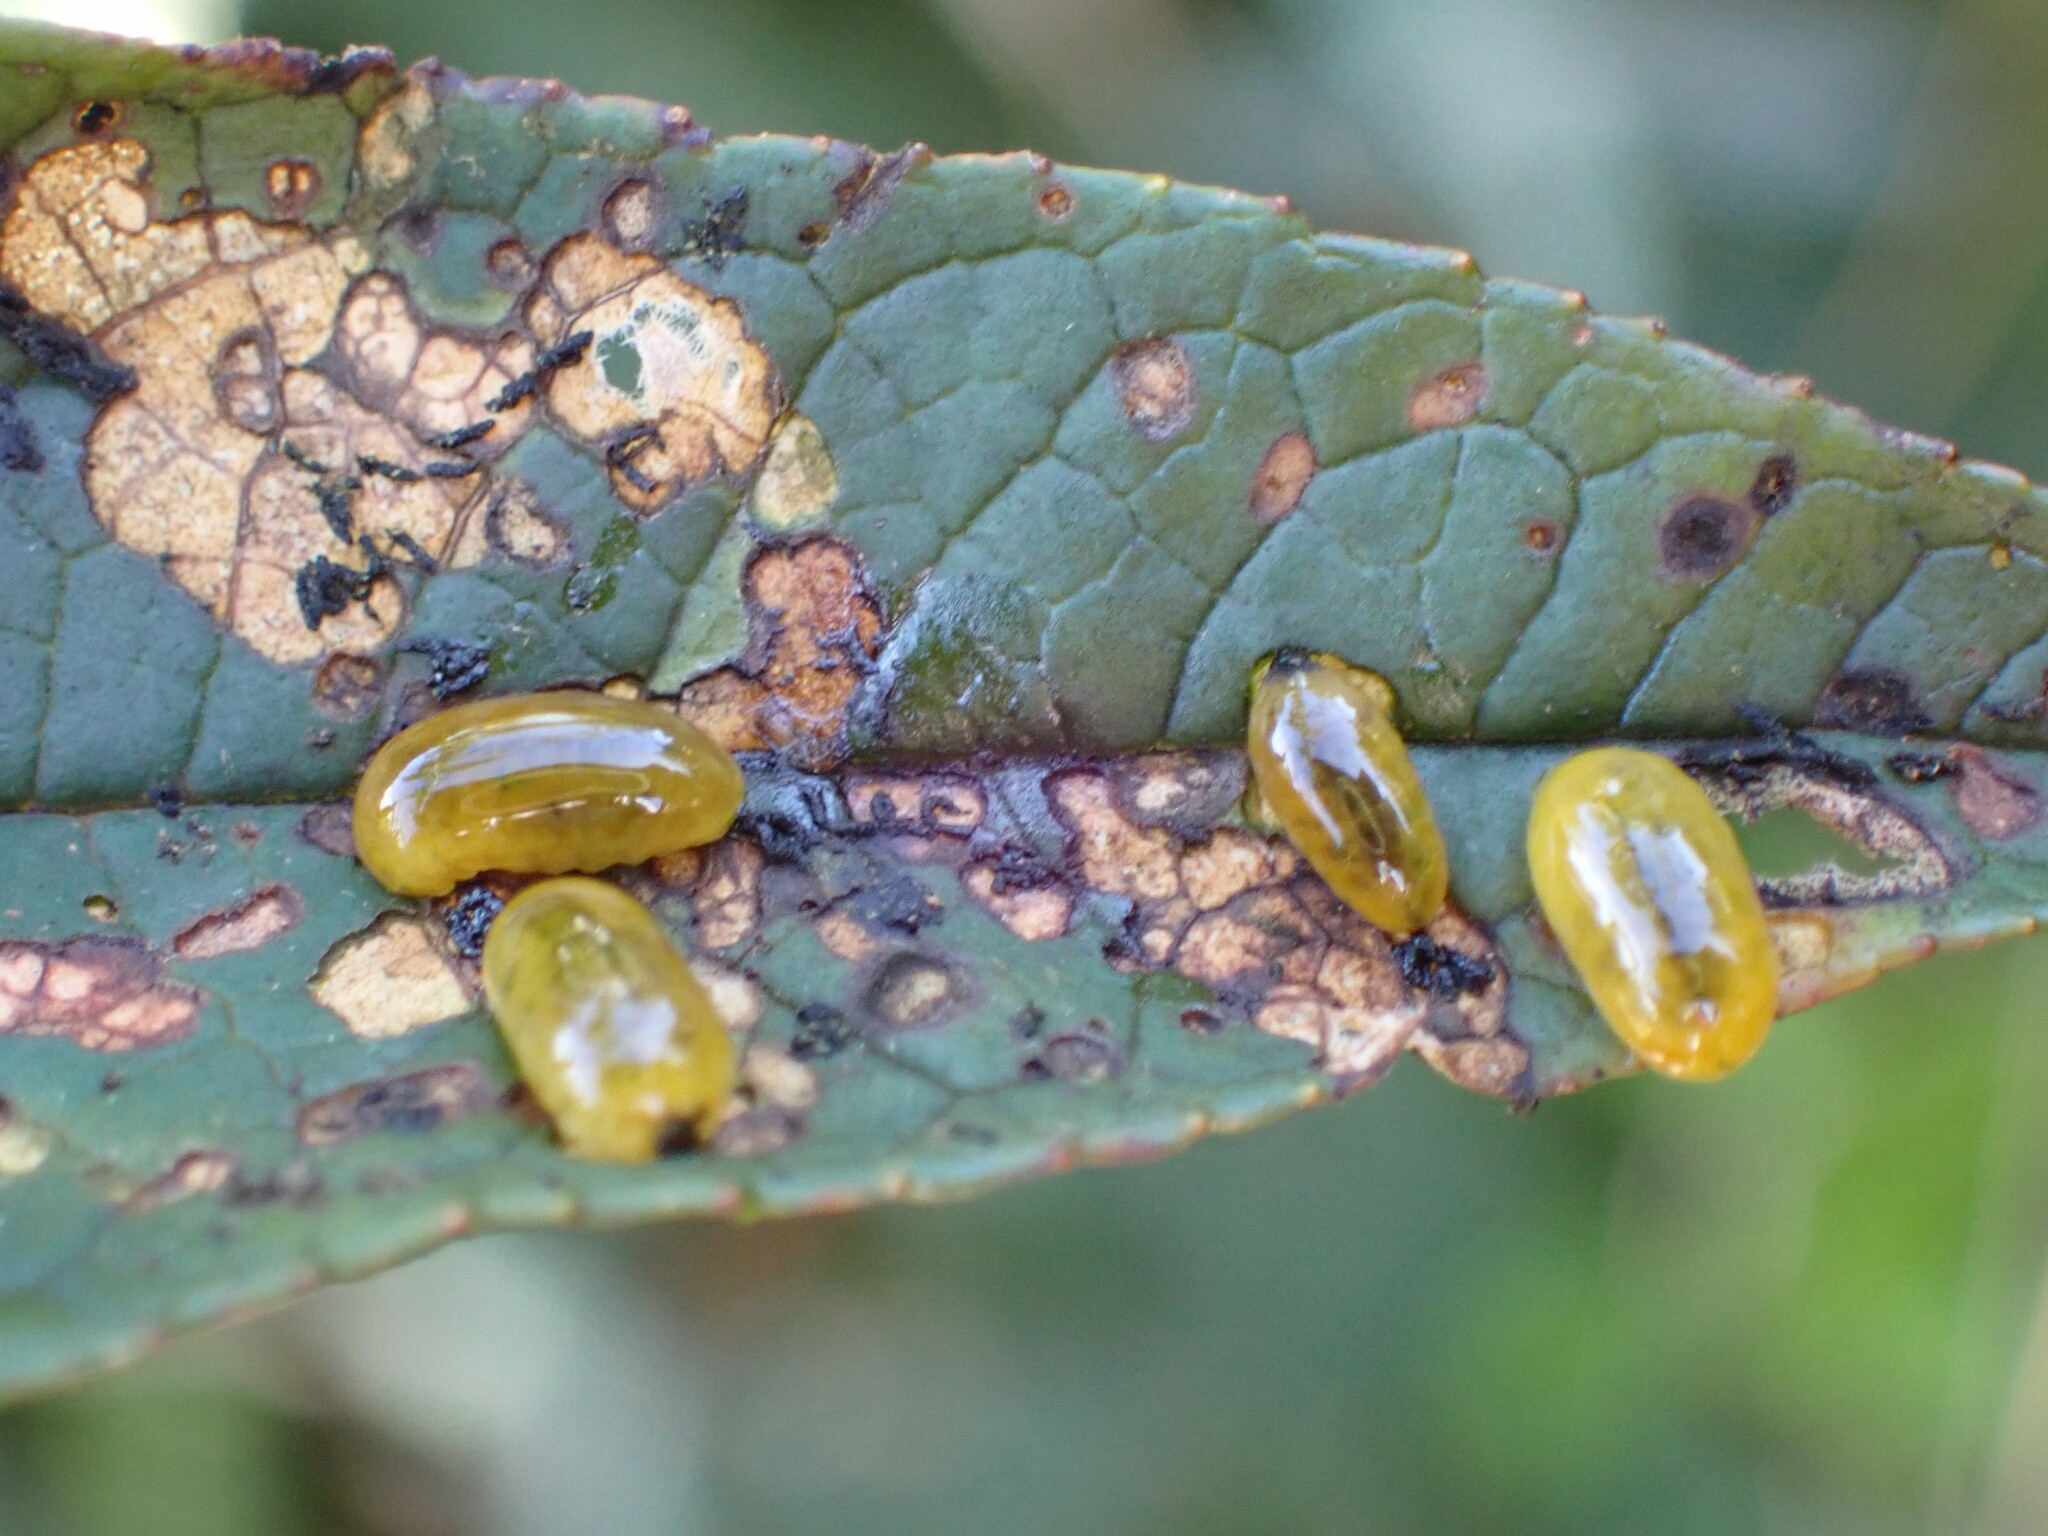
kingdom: Animalia
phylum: Arthropoda
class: Insecta
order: Coleoptera
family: Curculionidae
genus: Cleopus
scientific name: Cleopus japonicus
